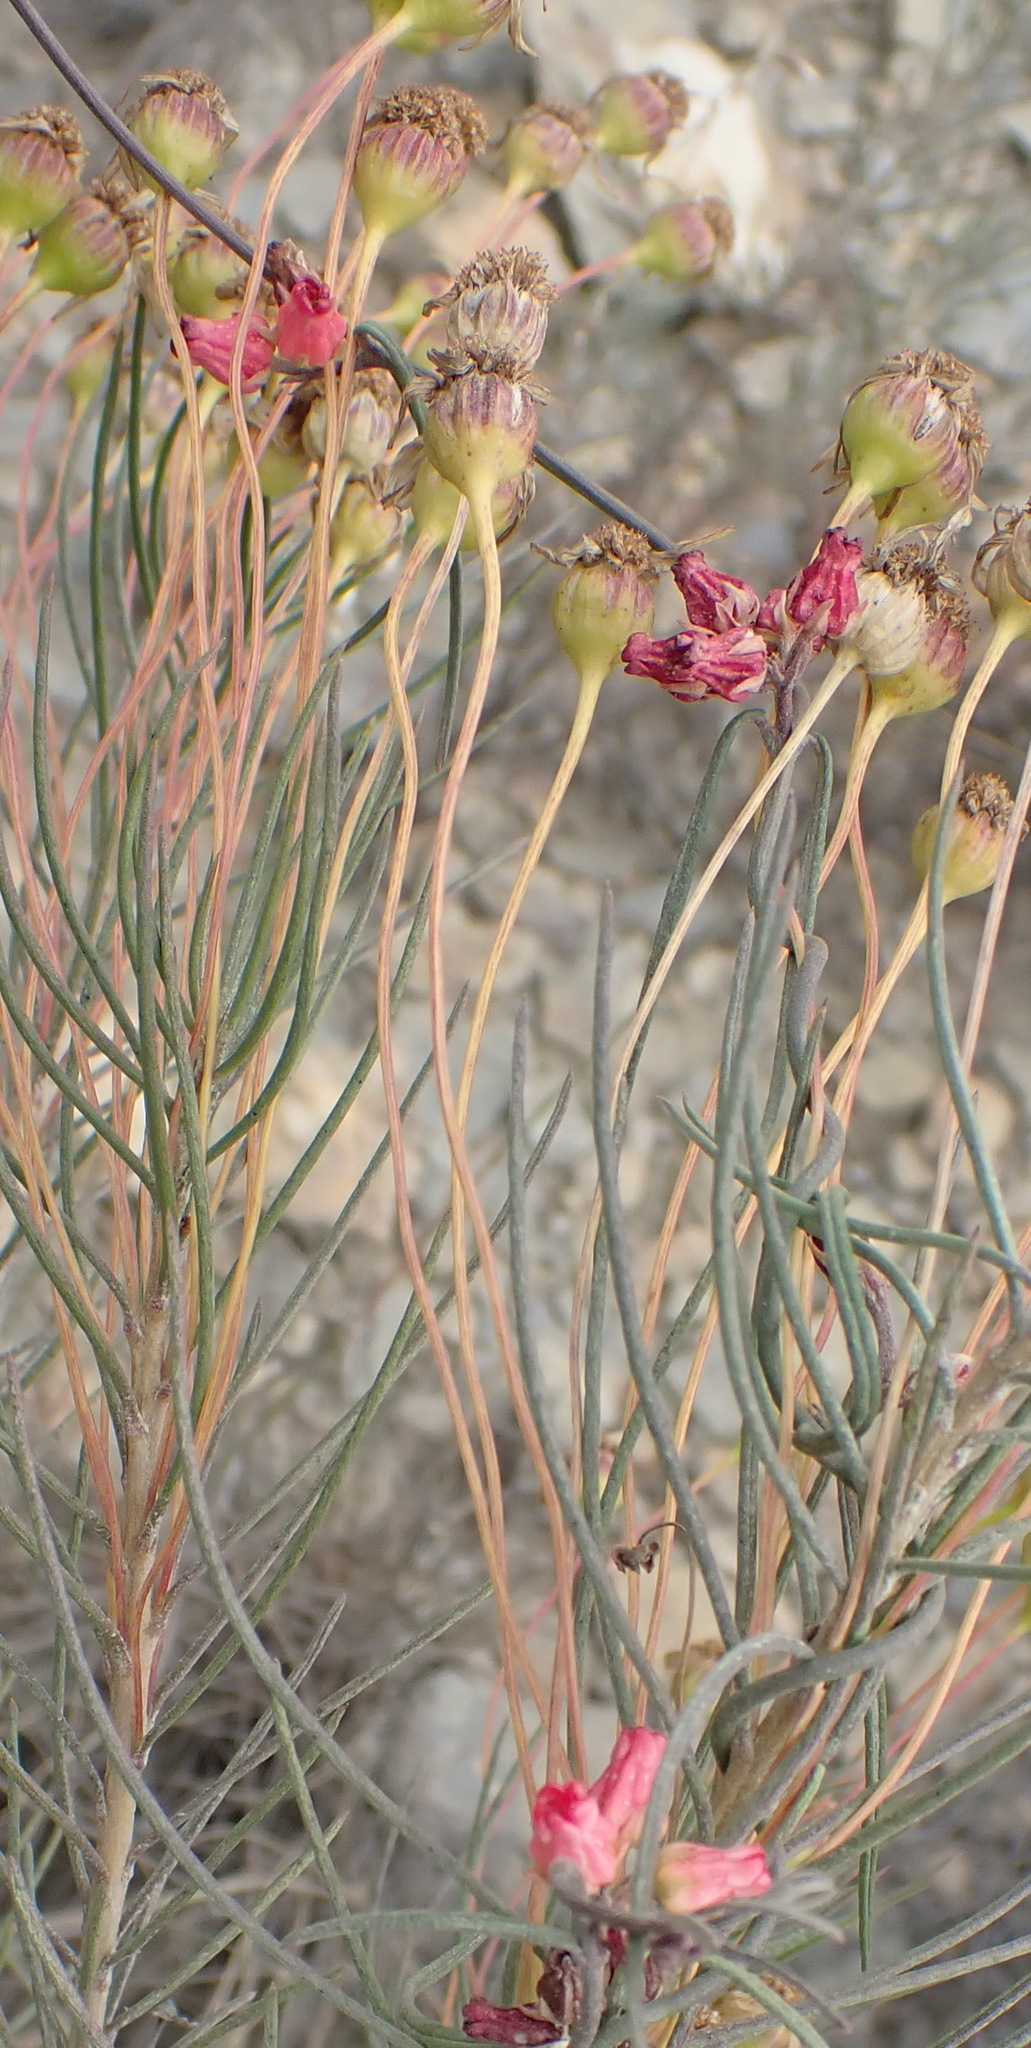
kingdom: Plantae
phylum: Tracheophyta
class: Magnoliopsida
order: Gentianales
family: Apocynaceae
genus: Microloma
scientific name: Microloma tenuifolium
